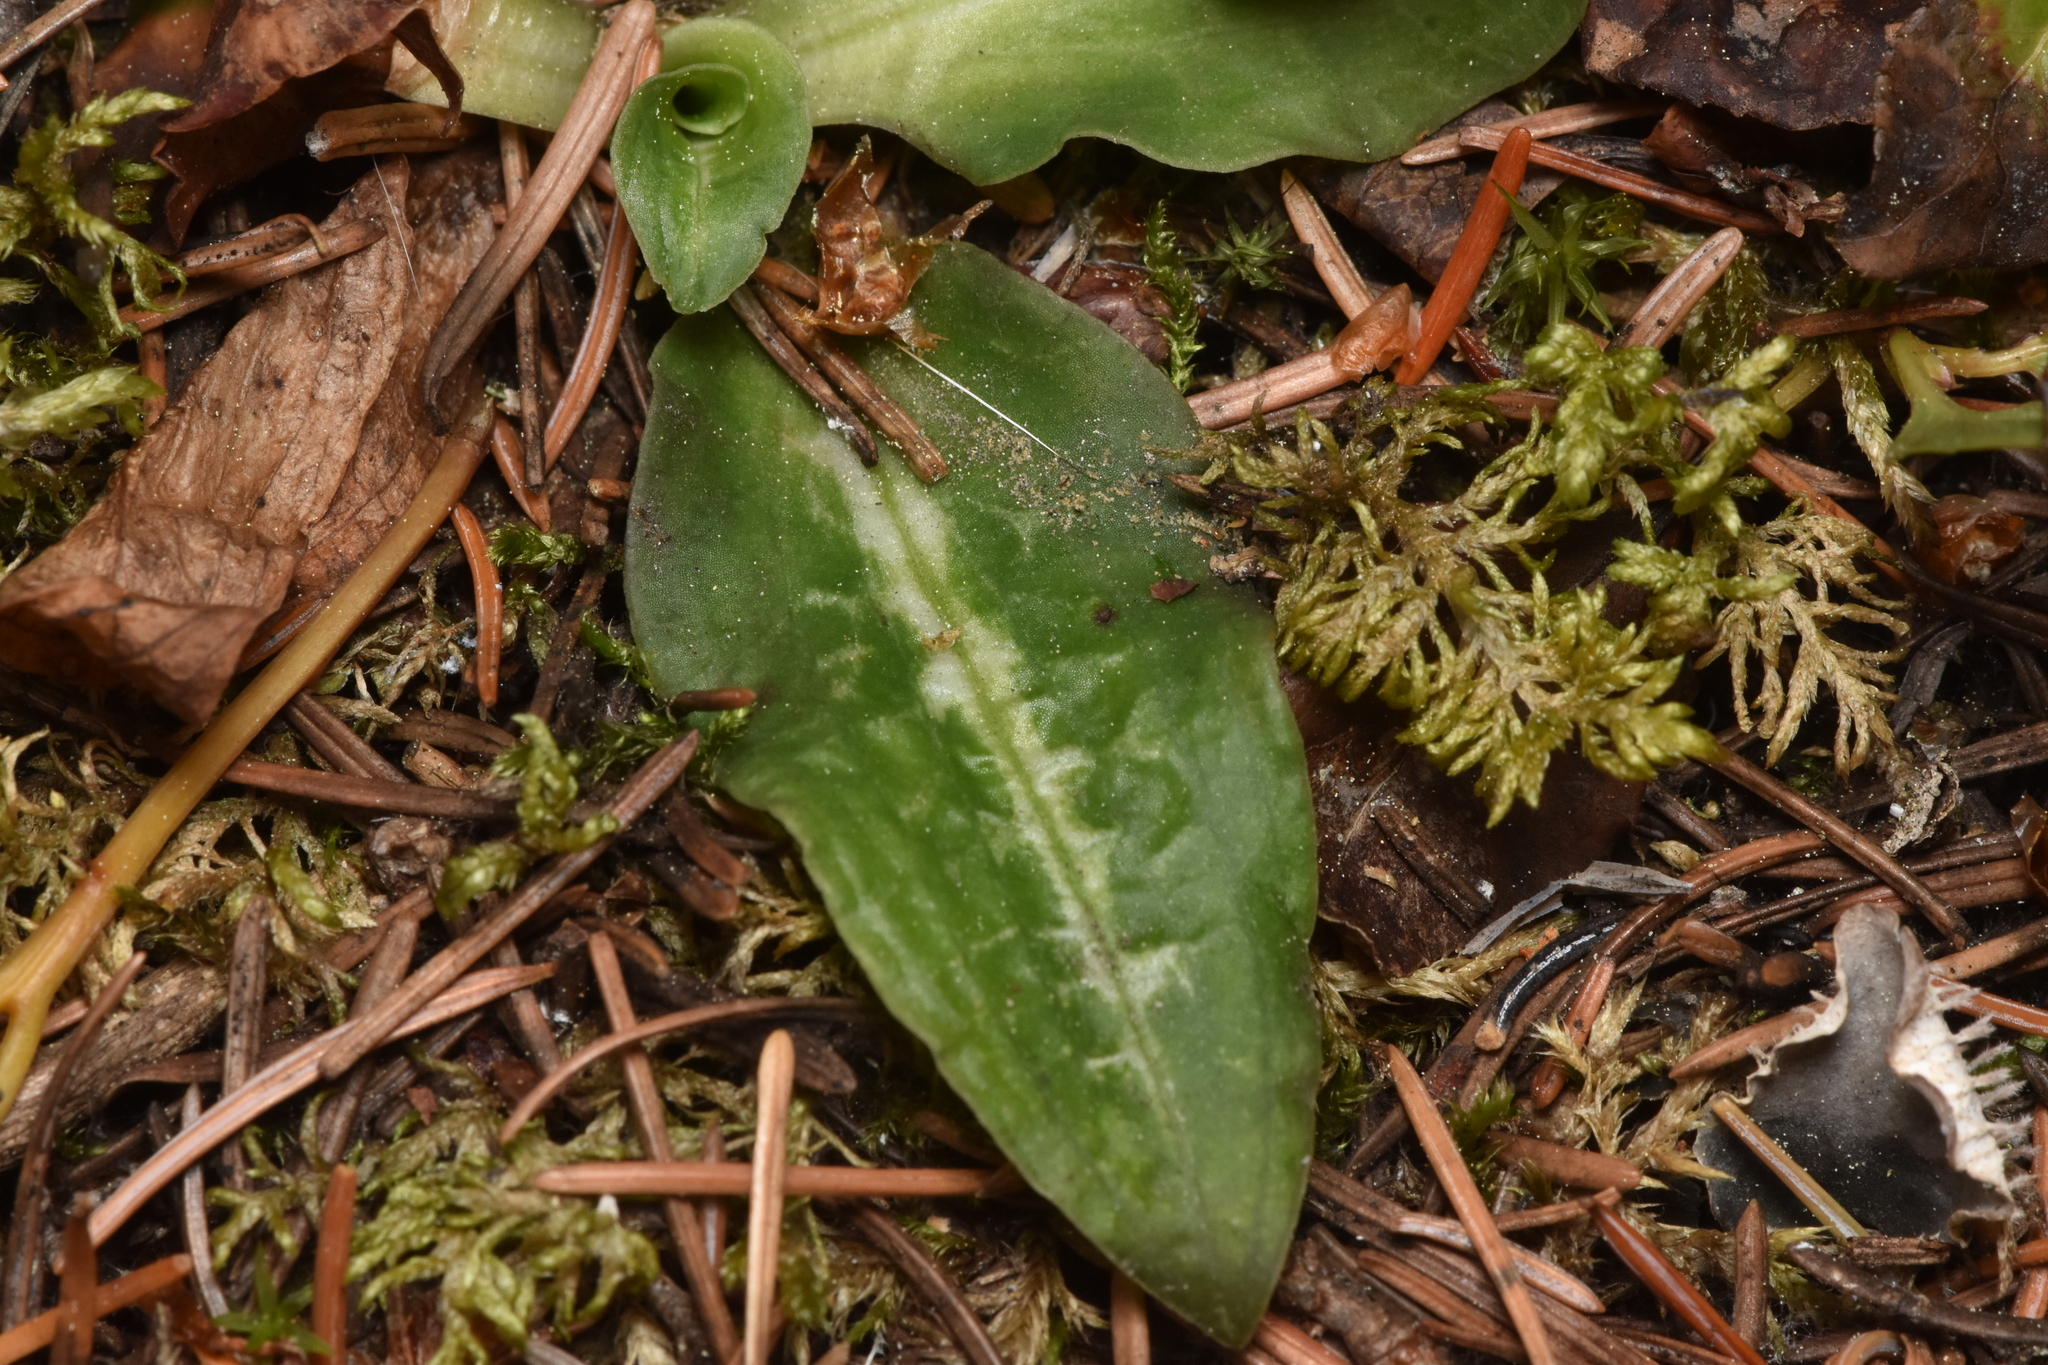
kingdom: Plantae
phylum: Tracheophyta
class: Liliopsida
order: Asparagales
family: Orchidaceae
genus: Goodyera
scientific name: Goodyera oblongifolia
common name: Giant rattlesnake-plantain
